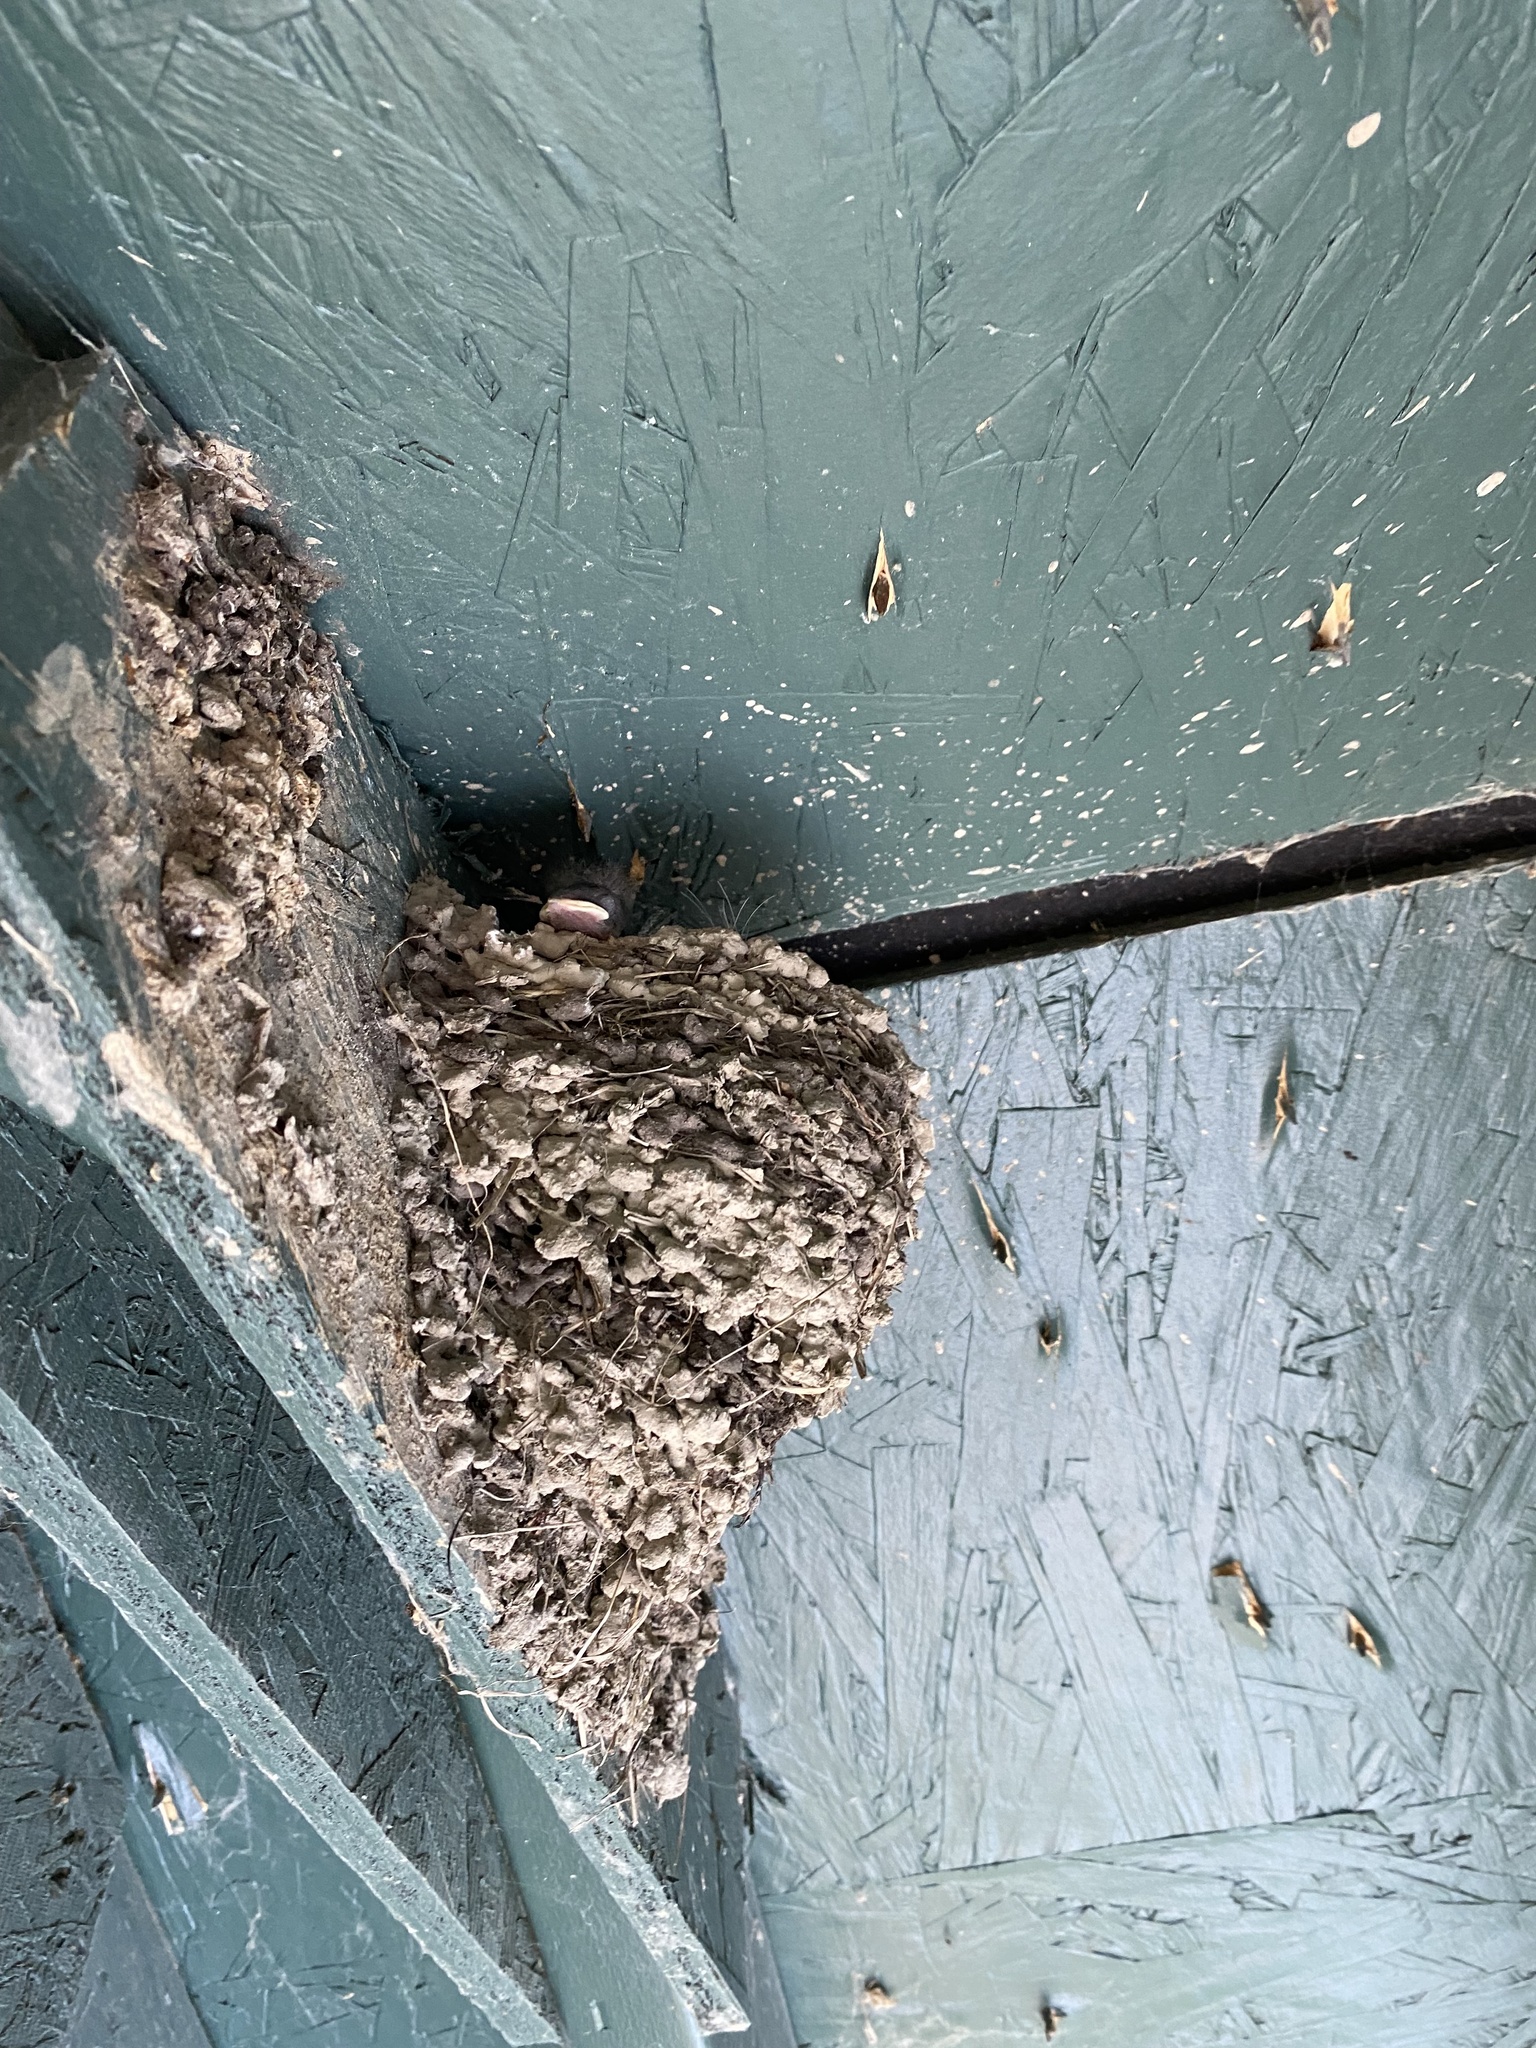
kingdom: Animalia
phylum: Chordata
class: Aves
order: Passeriformes
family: Hirundinidae
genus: Hirundo
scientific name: Hirundo rustica
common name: Barn swallow
